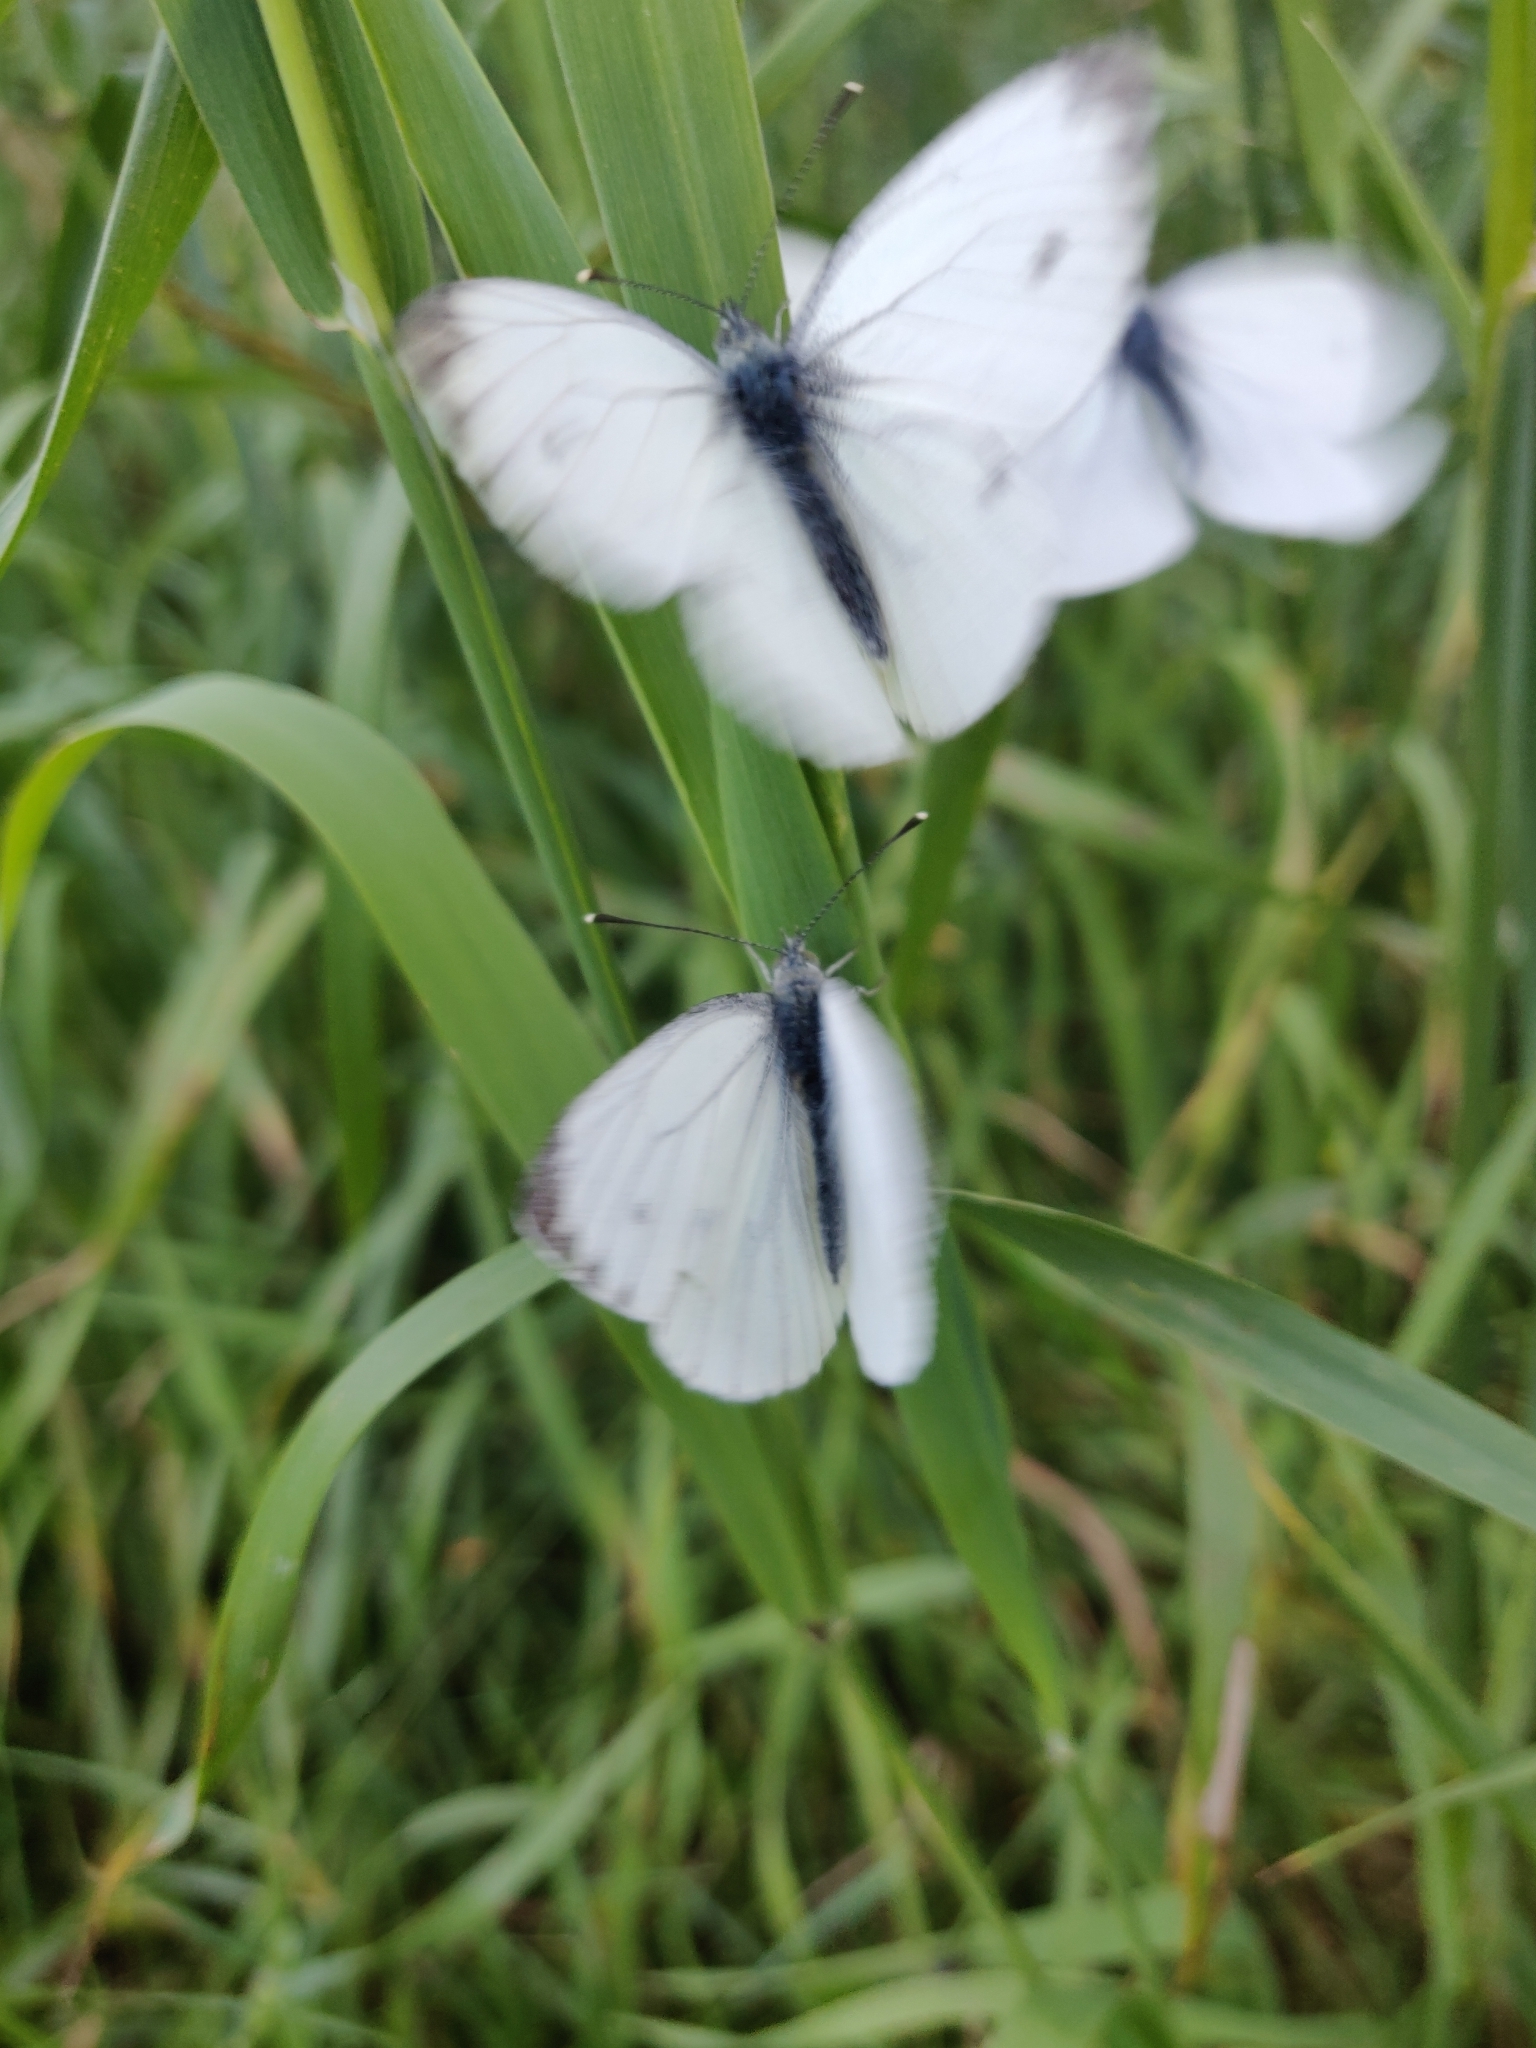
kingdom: Animalia
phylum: Arthropoda
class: Insecta
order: Lepidoptera
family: Pieridae
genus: Pieris
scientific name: Pieris napi
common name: Green-veined white
